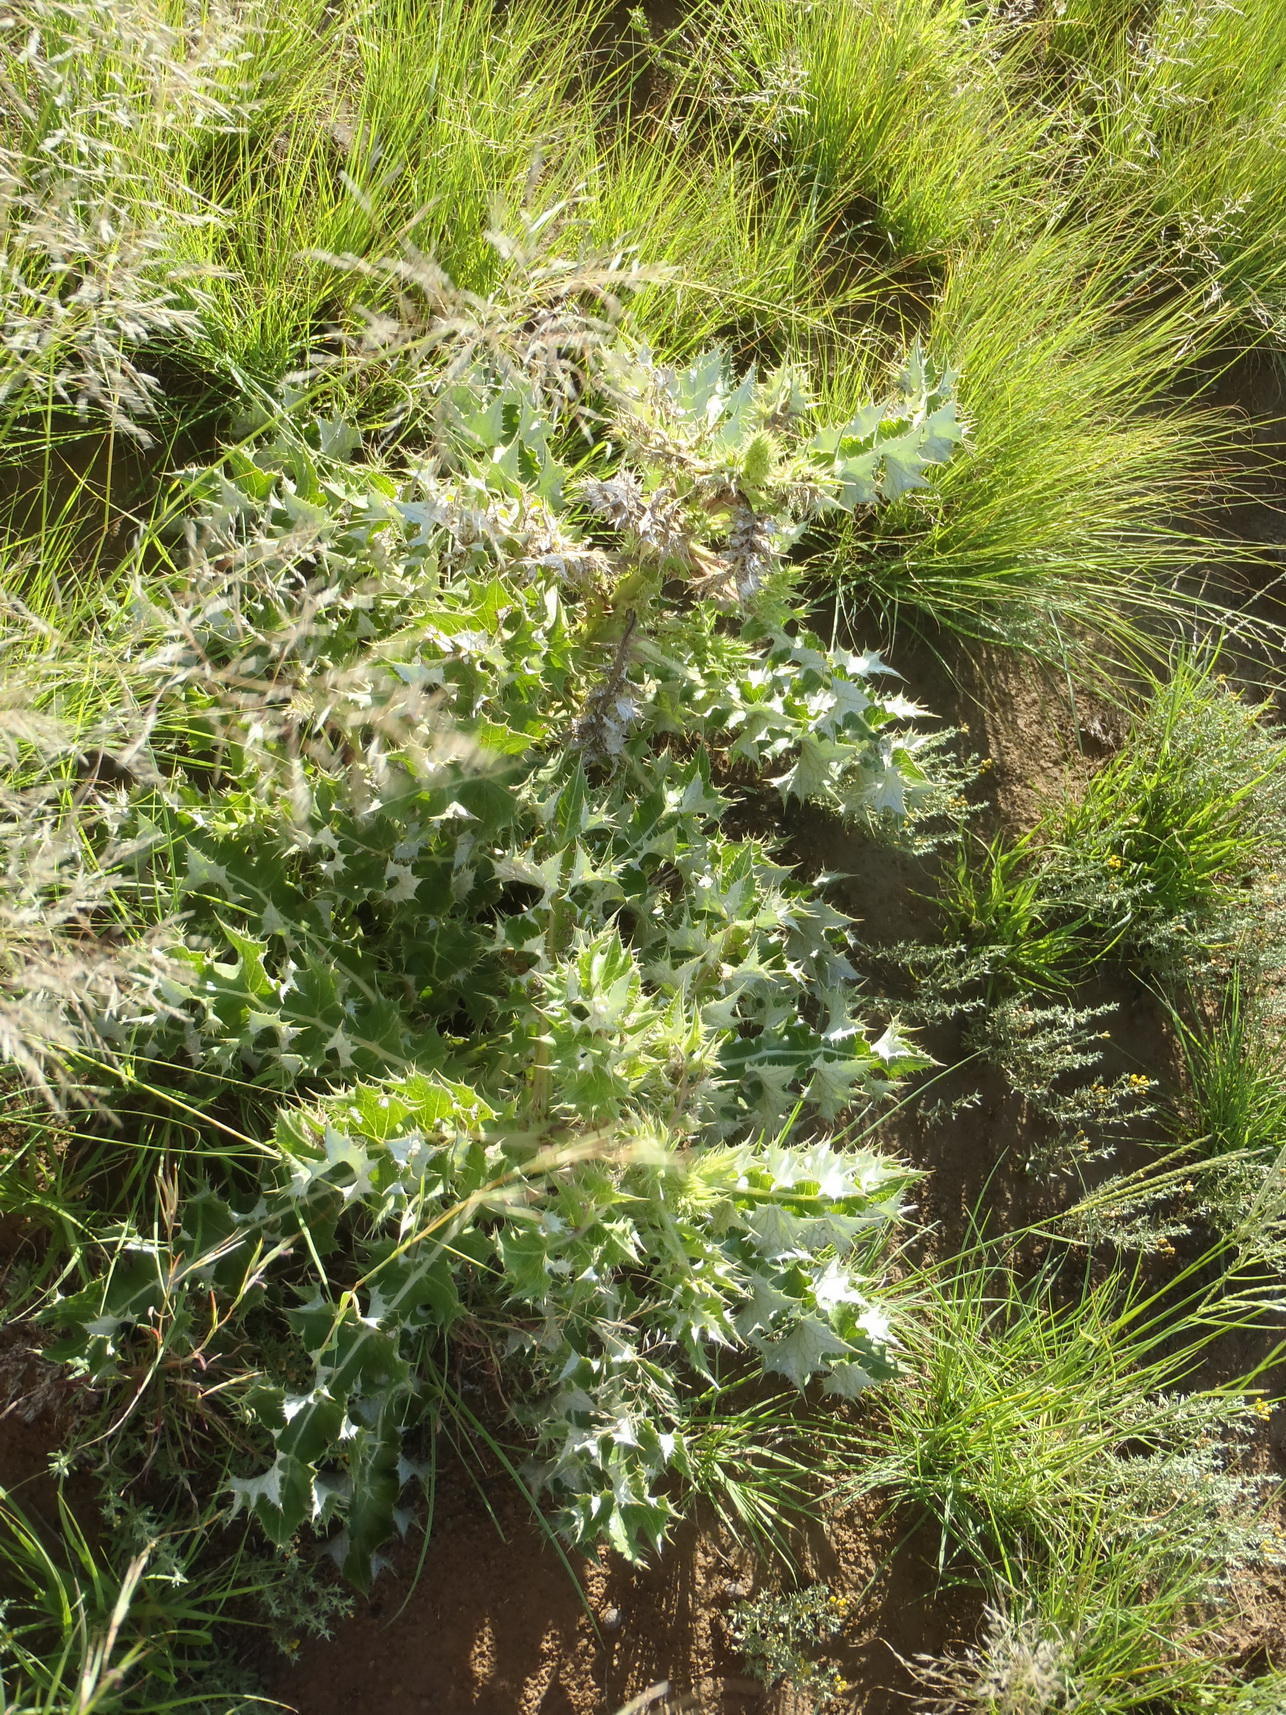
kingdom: Plantae
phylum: Tracheophyta
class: Magnoliopsida
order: Asterales
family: Asteraceae
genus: Berkheya
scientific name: Berkheya onopordifolia
